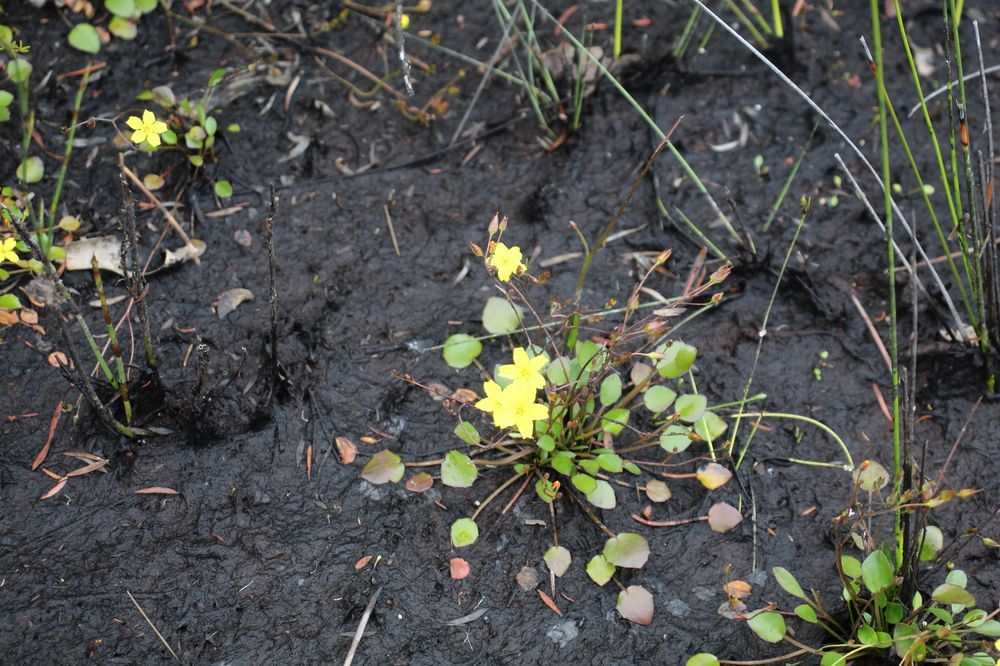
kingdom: Plantae
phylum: Tracheophyta
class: Magnoliopsida
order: Asterales
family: Menyanthaceae
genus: Ornduffia
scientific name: Ornduffia parnassifolia
